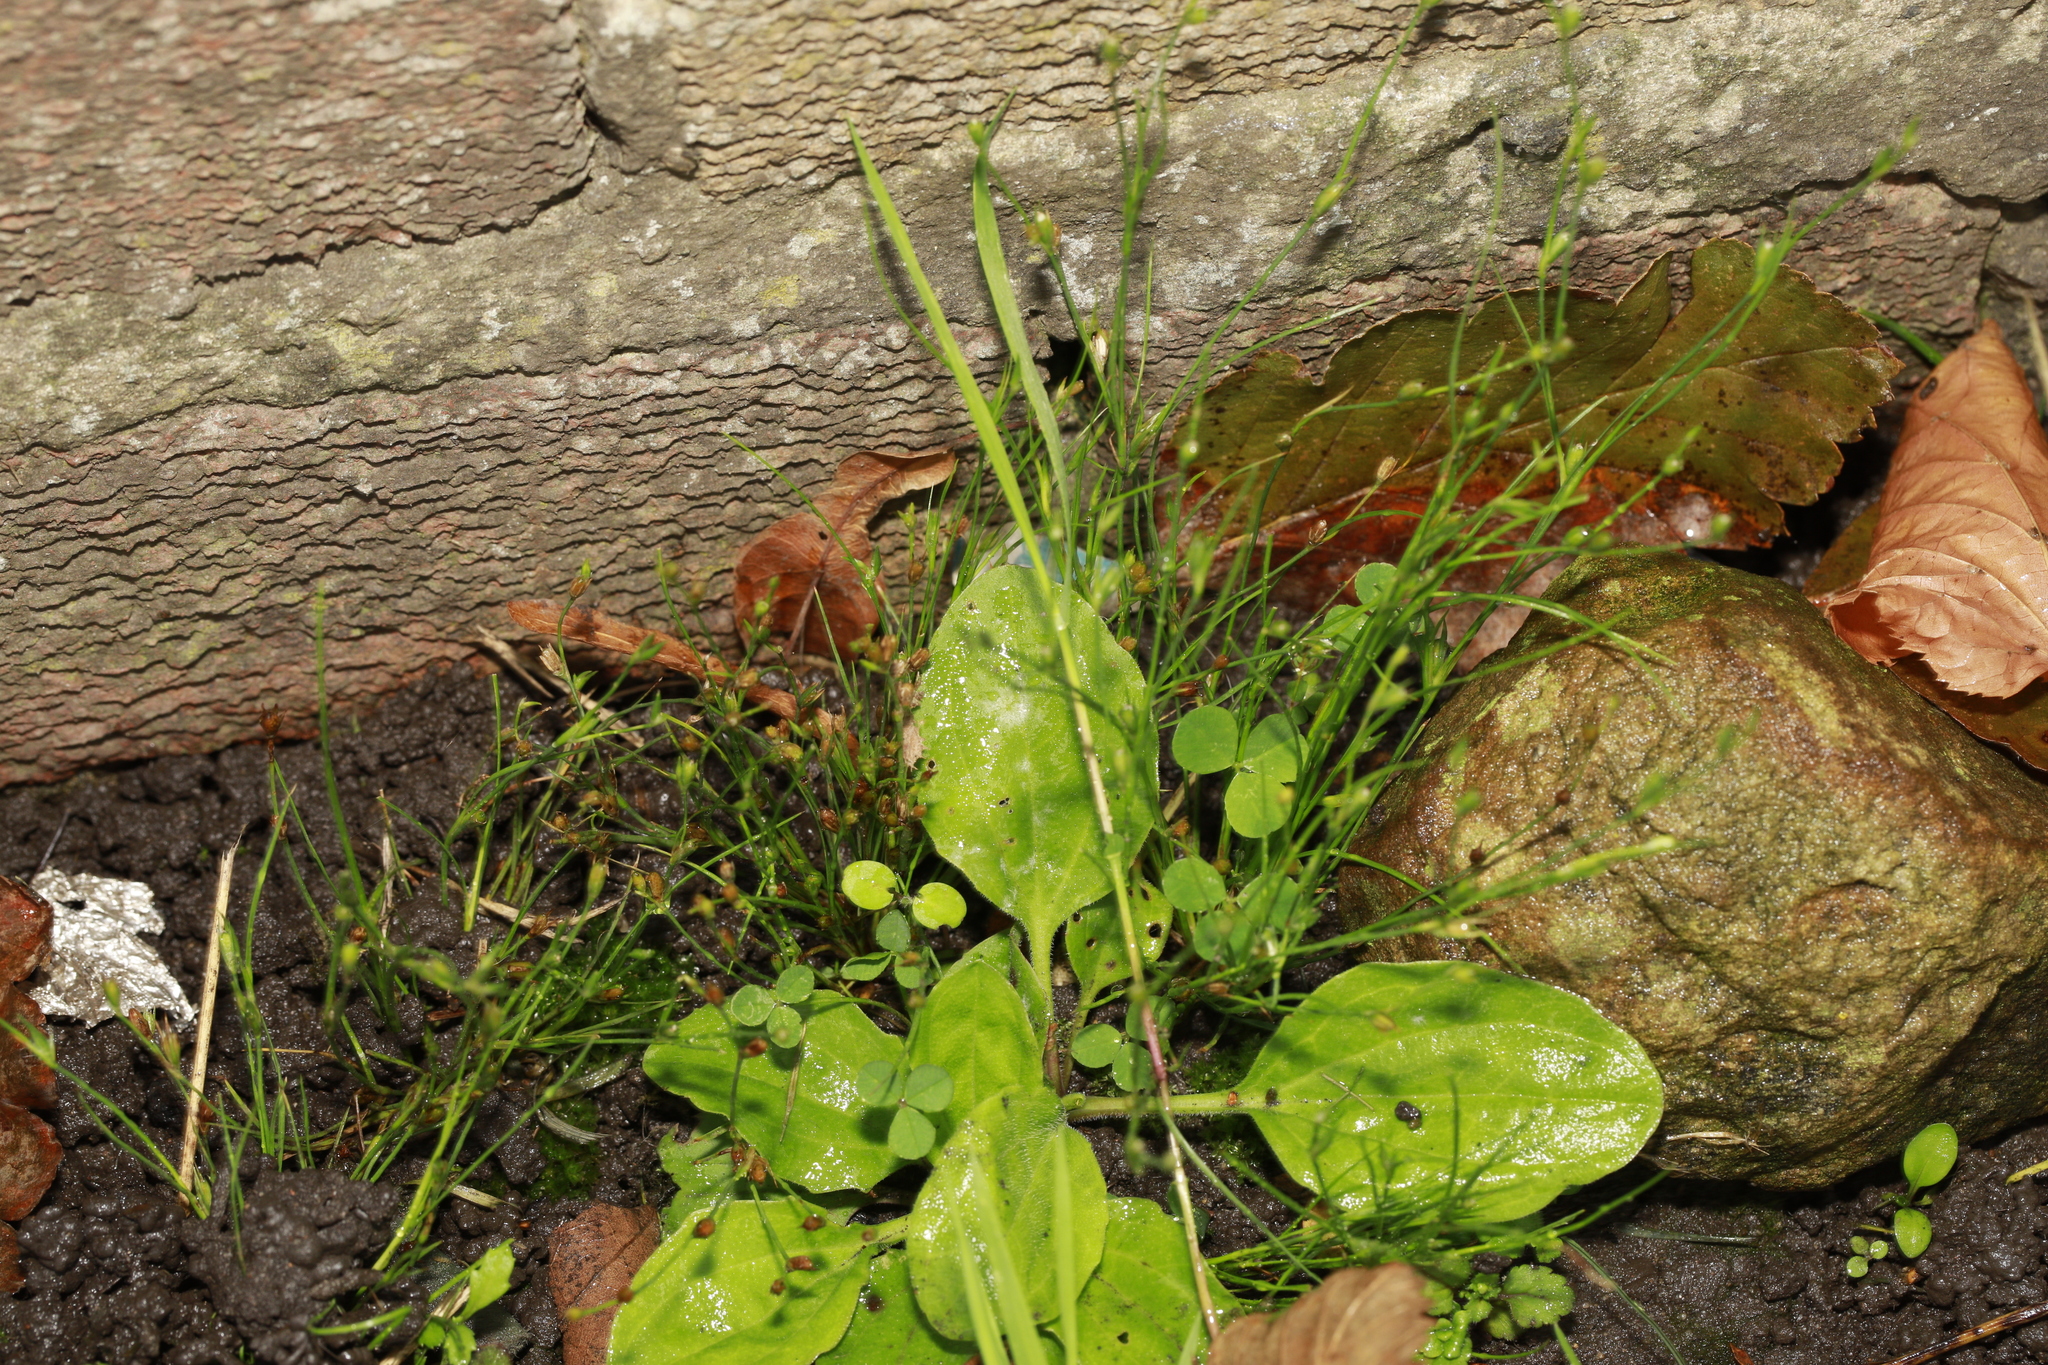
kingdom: Plantae
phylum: Tracheophyta
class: Liliopsida
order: Poales
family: Juncaceae
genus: Juncus
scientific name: Juncus bufonius
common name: Toad rush
